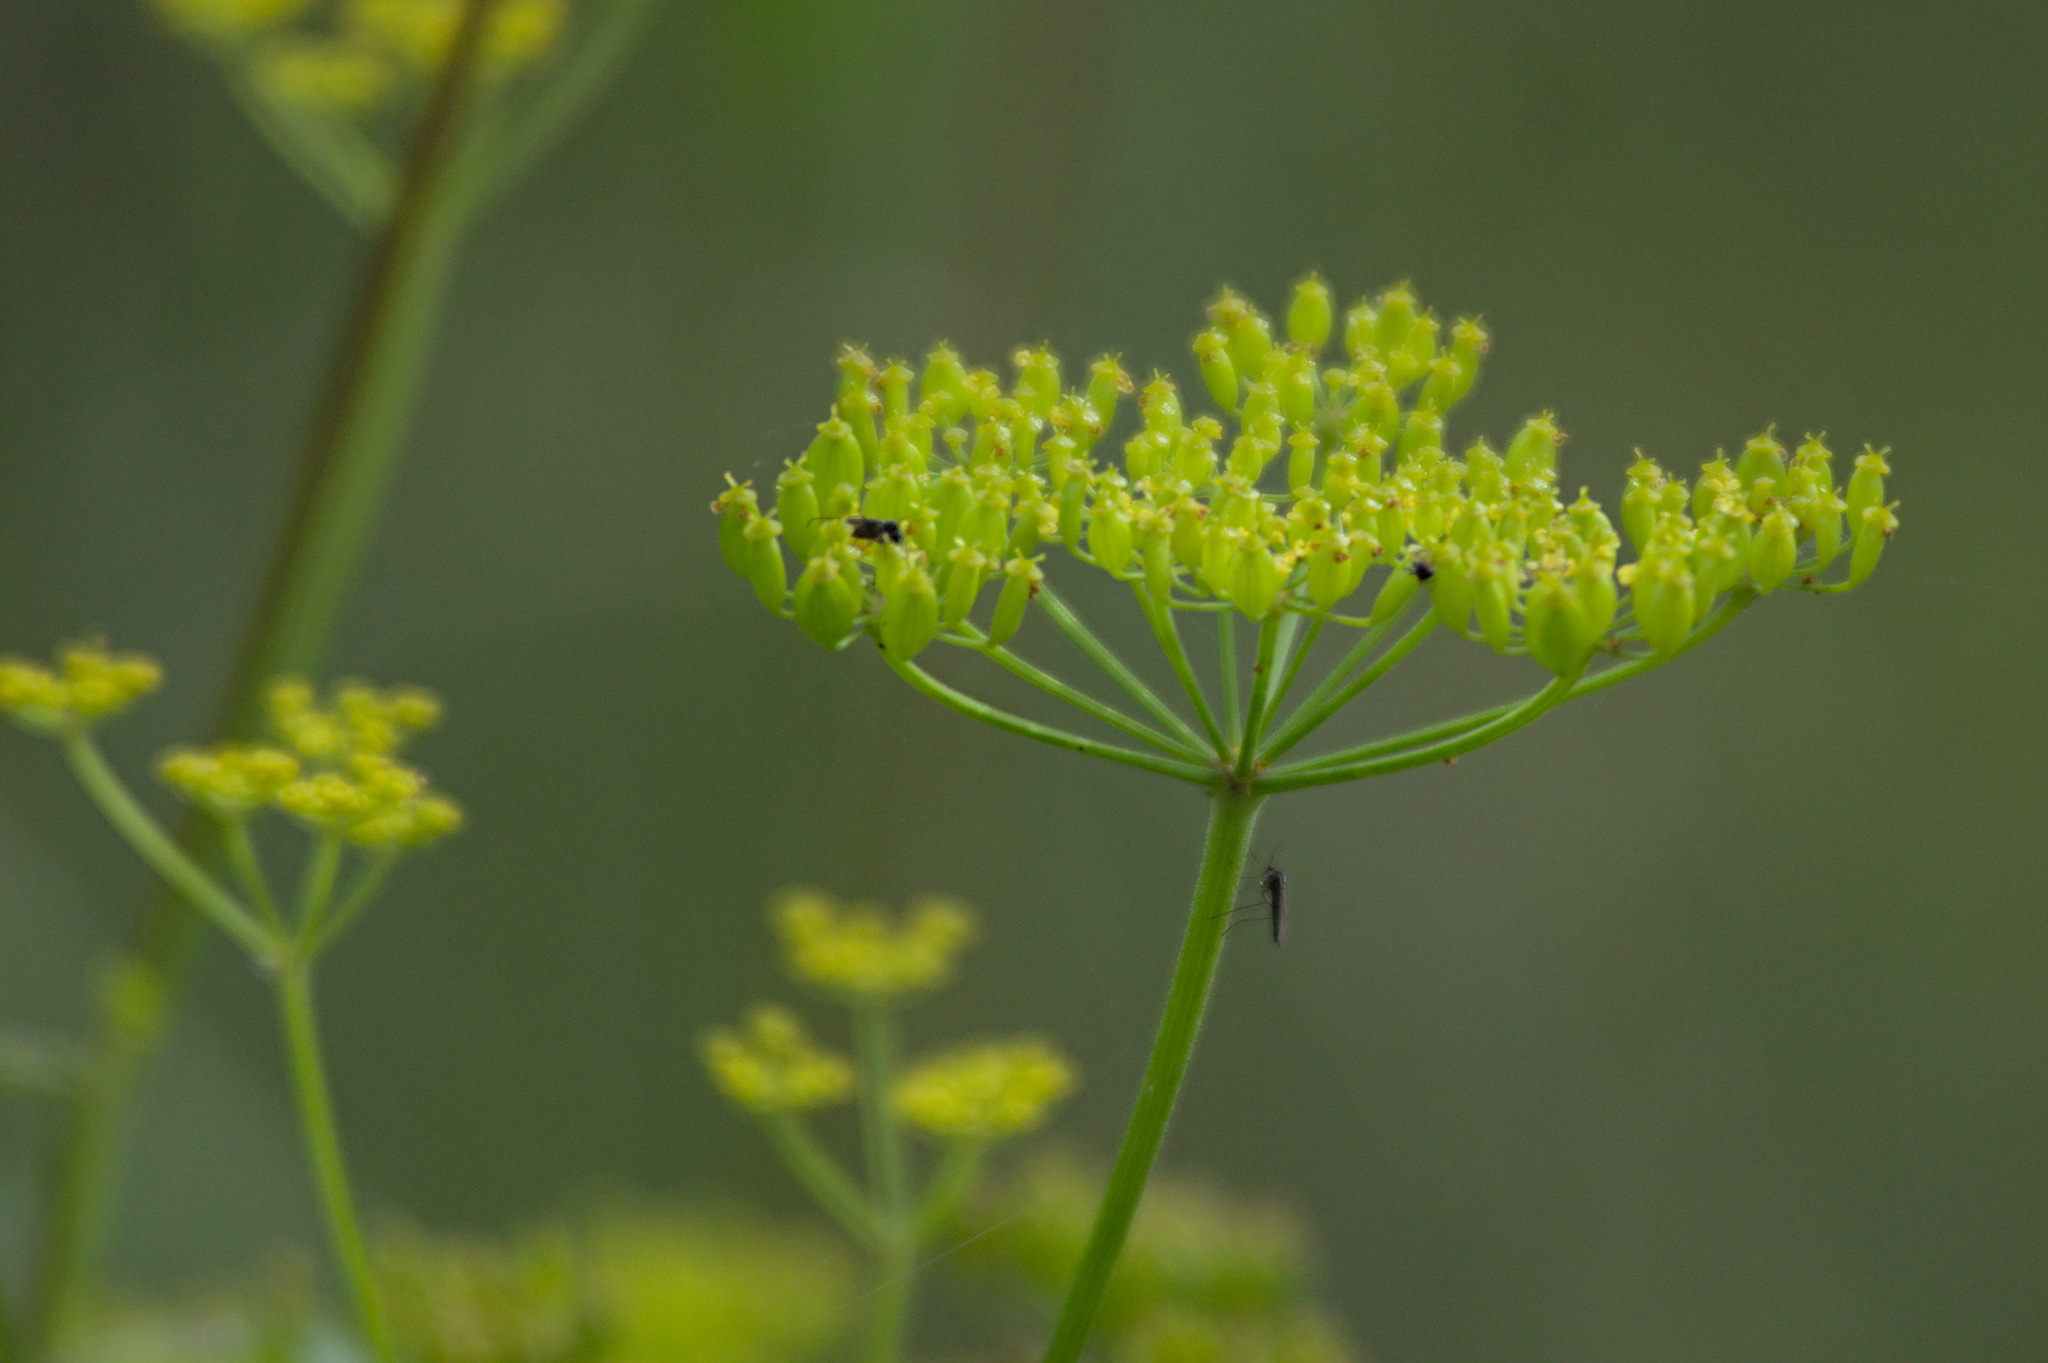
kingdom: Plantae
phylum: Tracheophyta
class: Magnoliopsida
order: Apiales
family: Apiaceae
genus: Pastinaca
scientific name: Pastinaca sativa
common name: Wild parsnip
